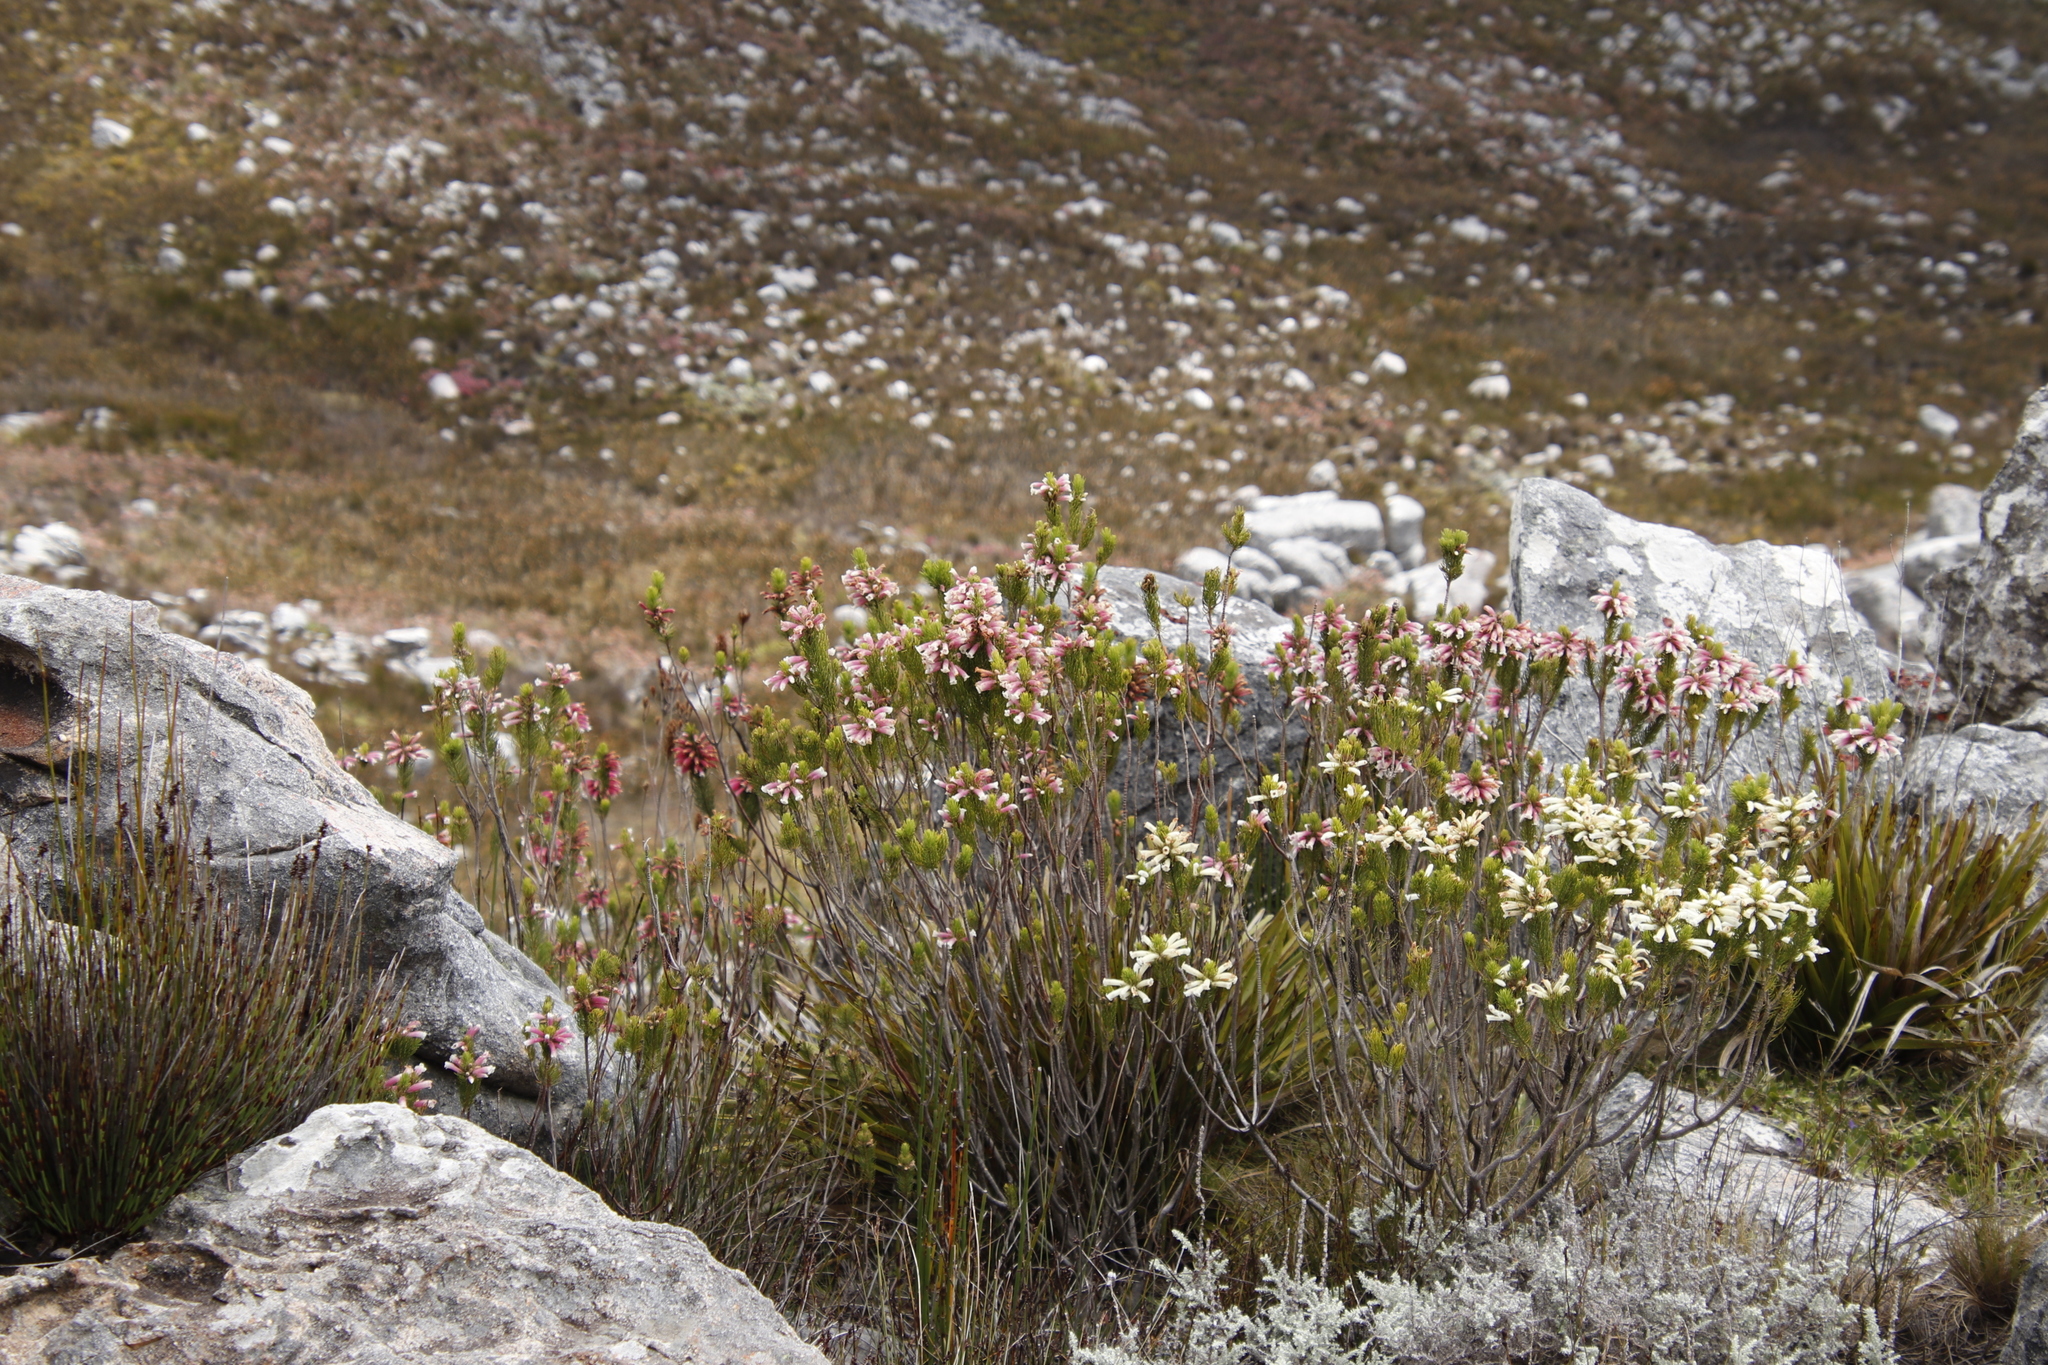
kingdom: Plantae
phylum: Tracheophyta
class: Magnoliopsida
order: Ericales
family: Ericaceae
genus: Erica
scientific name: Erica viscaria
